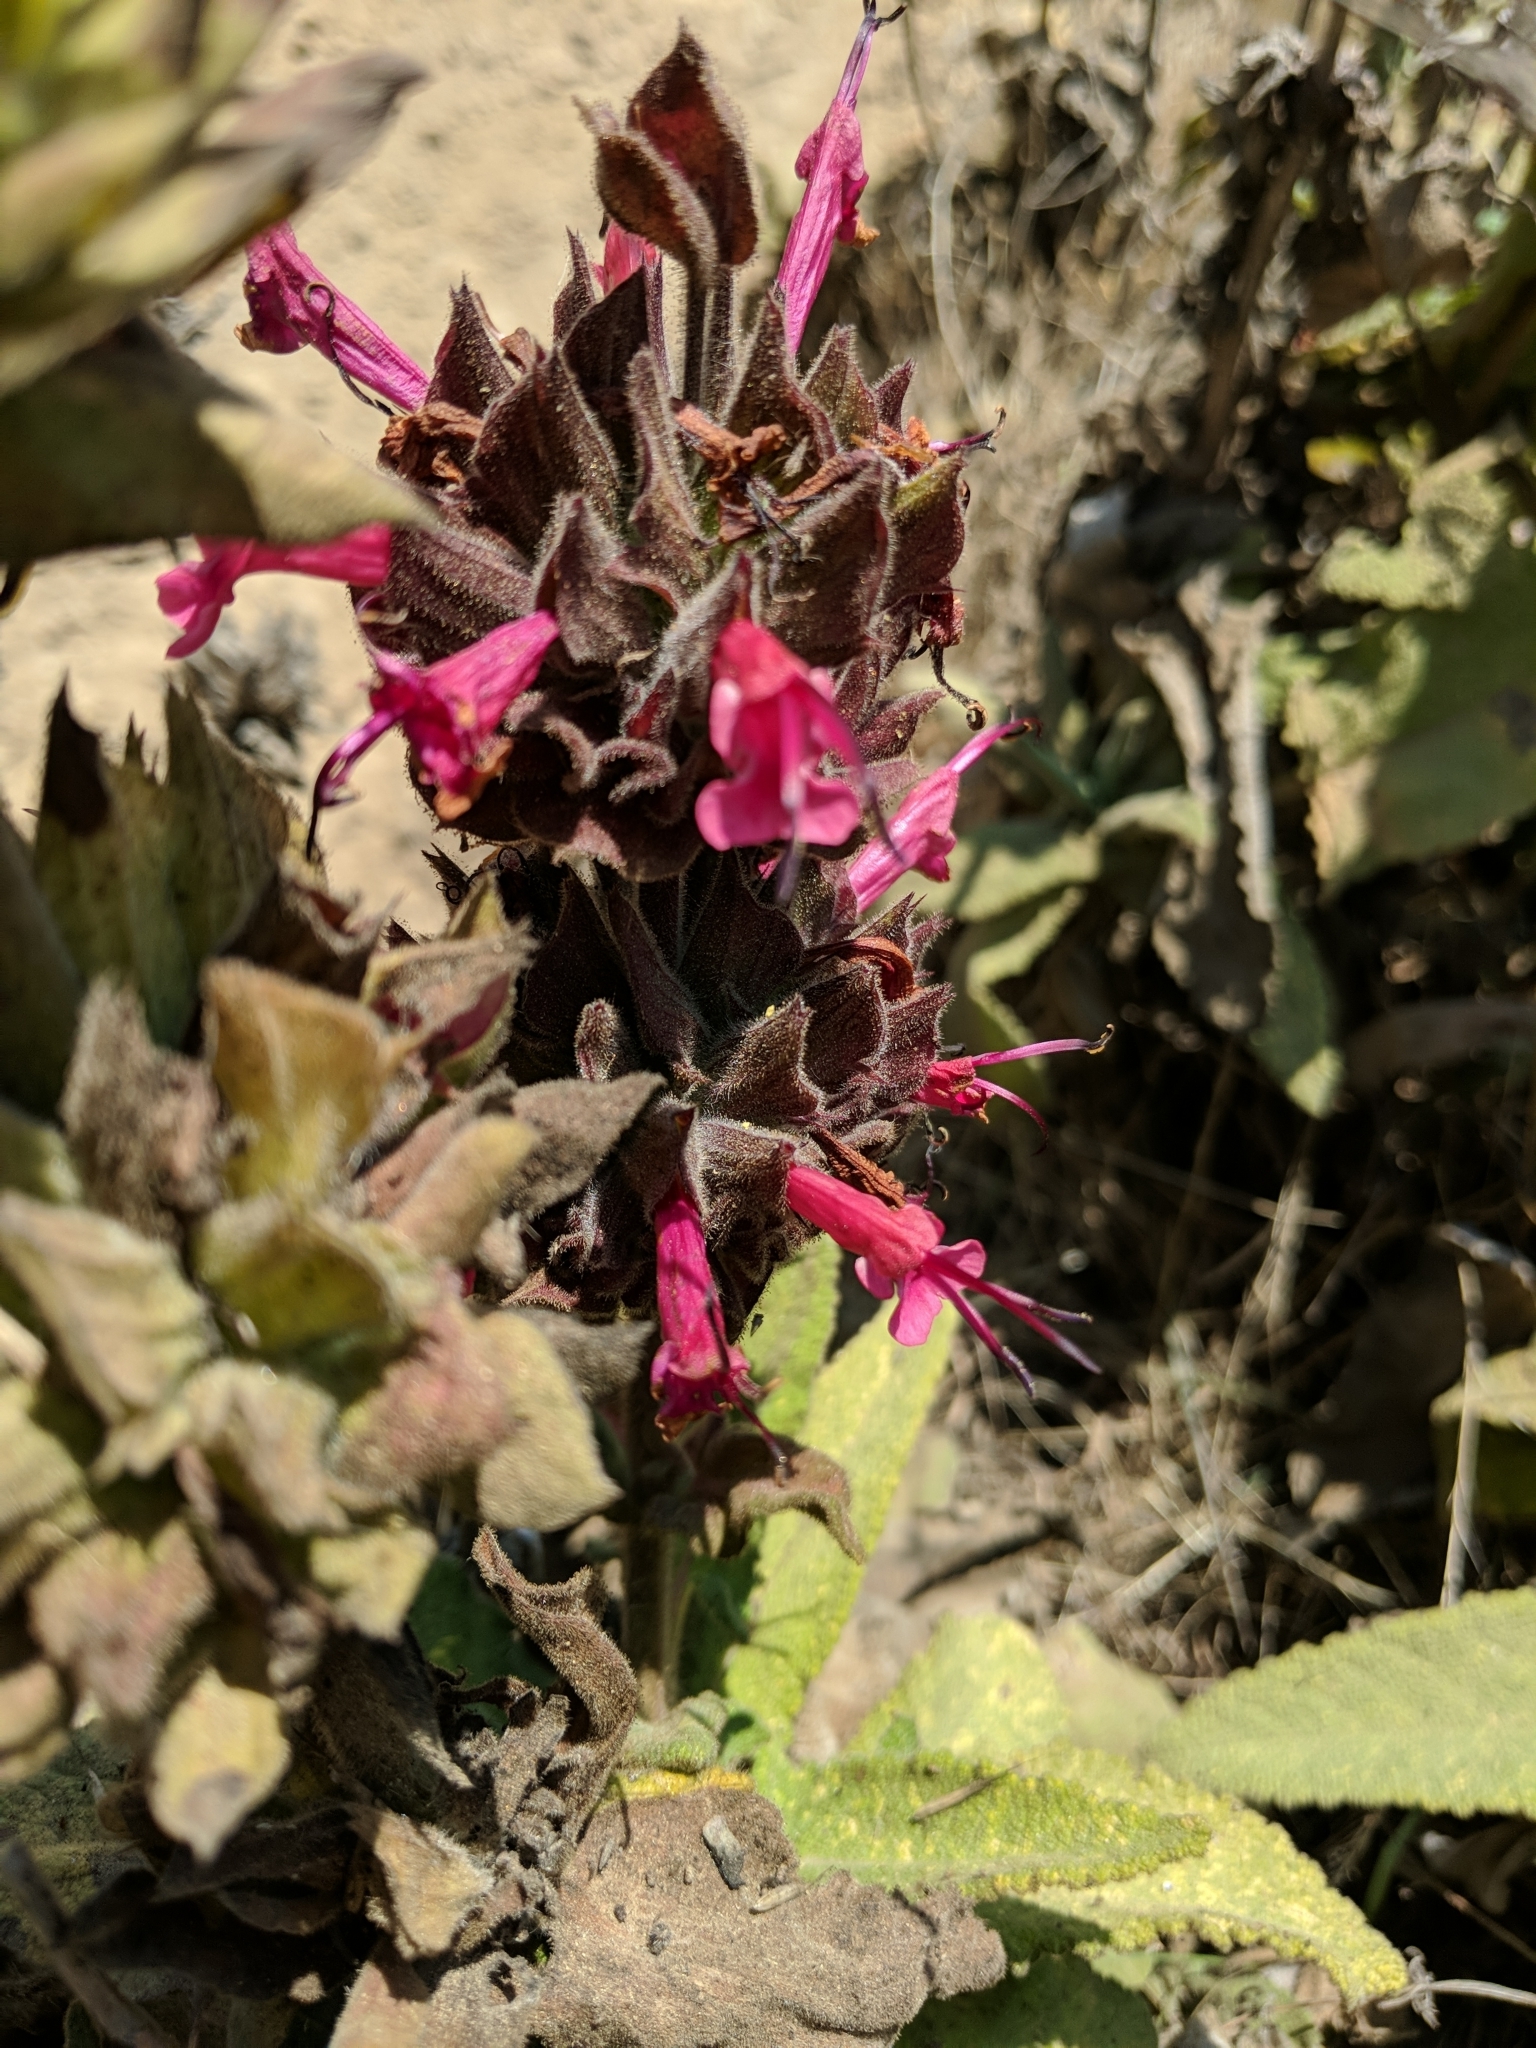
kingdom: Plantae
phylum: Tracheophyta
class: Magnoliopsida
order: Lamiales
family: Lamiaceae
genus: Salvia
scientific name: Salvia spathacea
